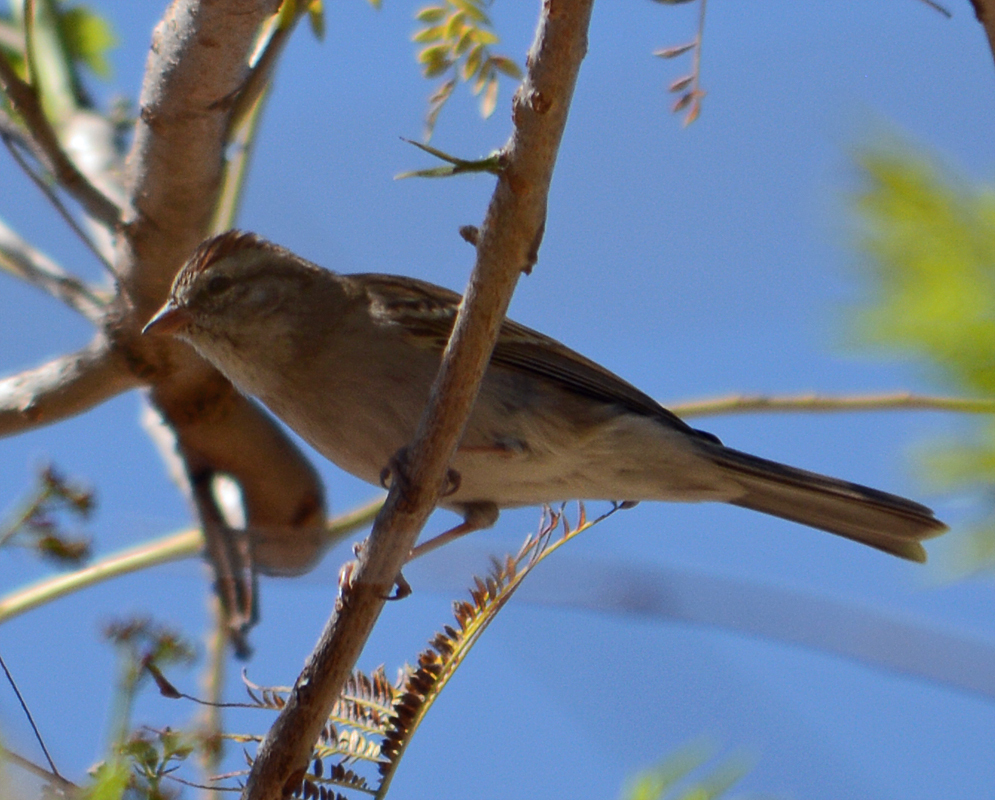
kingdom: Animalia
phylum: Chordata
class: Aves
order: Passeriformes
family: Passerellidae
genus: Spizella
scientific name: Spizella passerina
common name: Chipping sparrow
